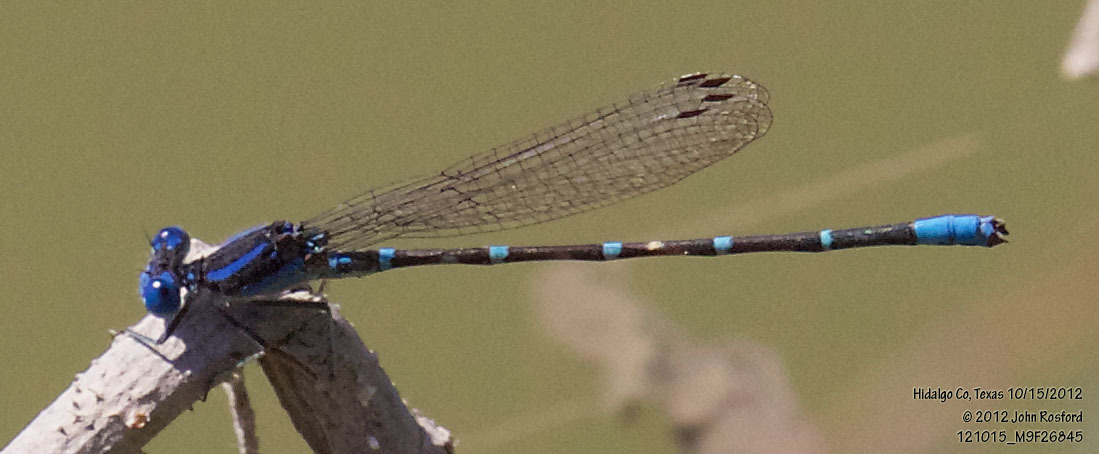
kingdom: Animalia
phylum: Arthropoda
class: Insecta
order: Odonata
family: Coenagrionidae
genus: Argia
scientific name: Argia sedula
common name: Blue-ringed dancer
